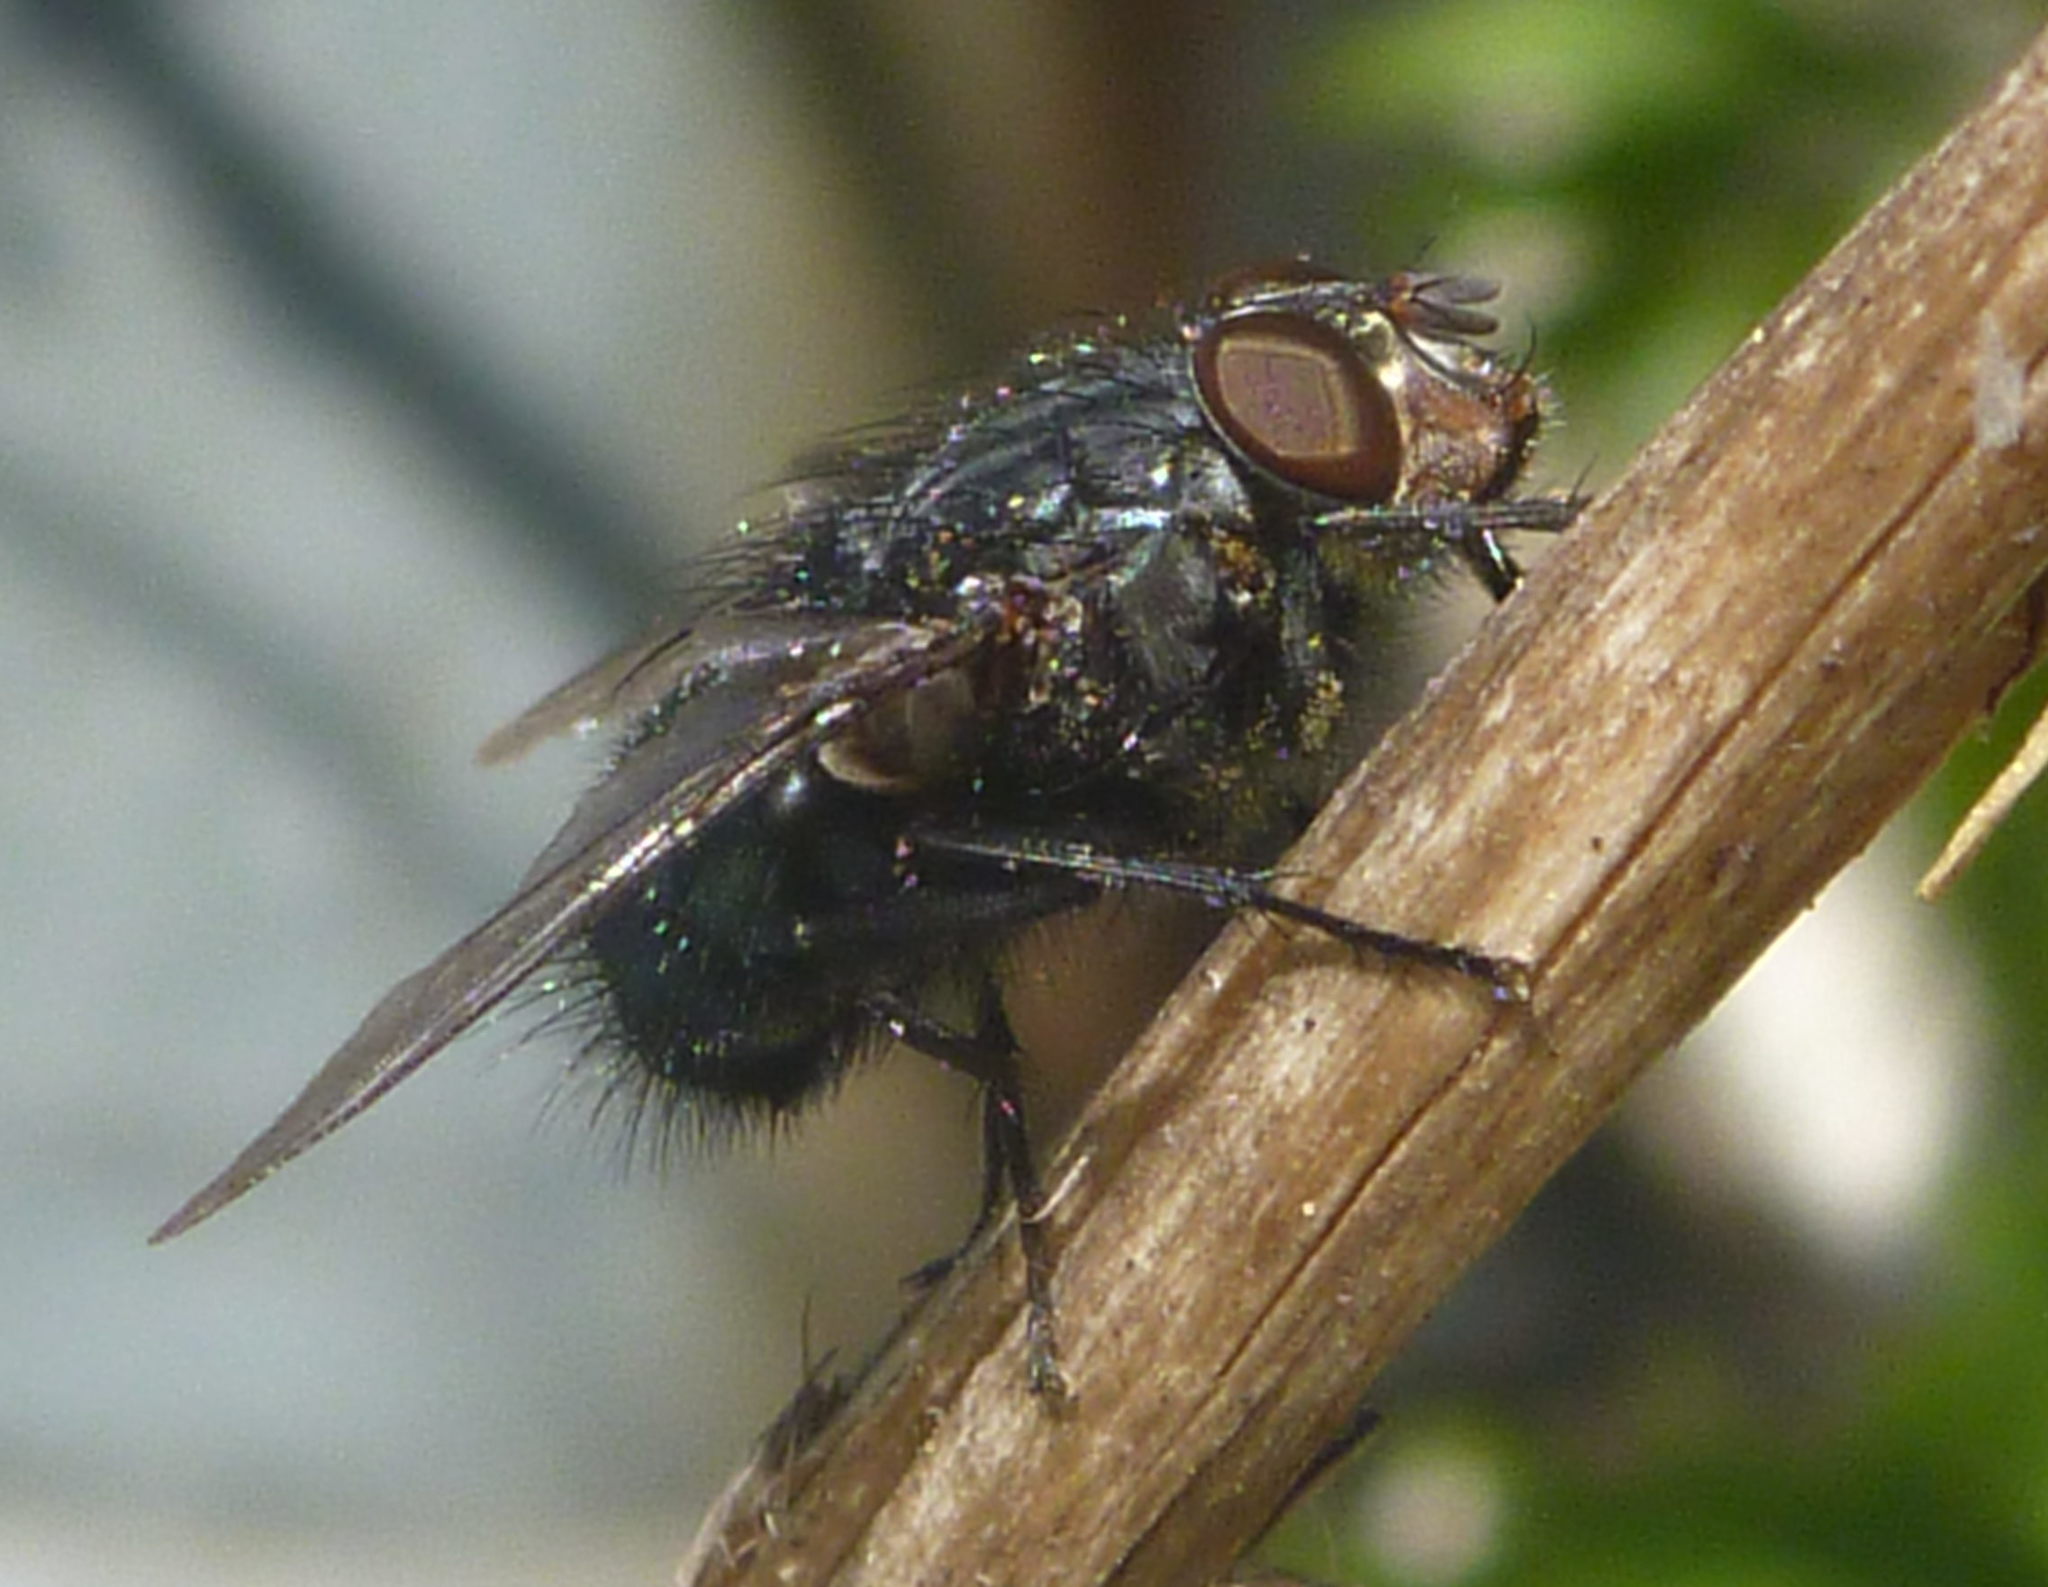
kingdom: Animalia
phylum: Arthropoda
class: Insecta
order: Diptera
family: Calliphoridae
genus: Calliphora
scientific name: Calliphora vicina
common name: Common blow flie
